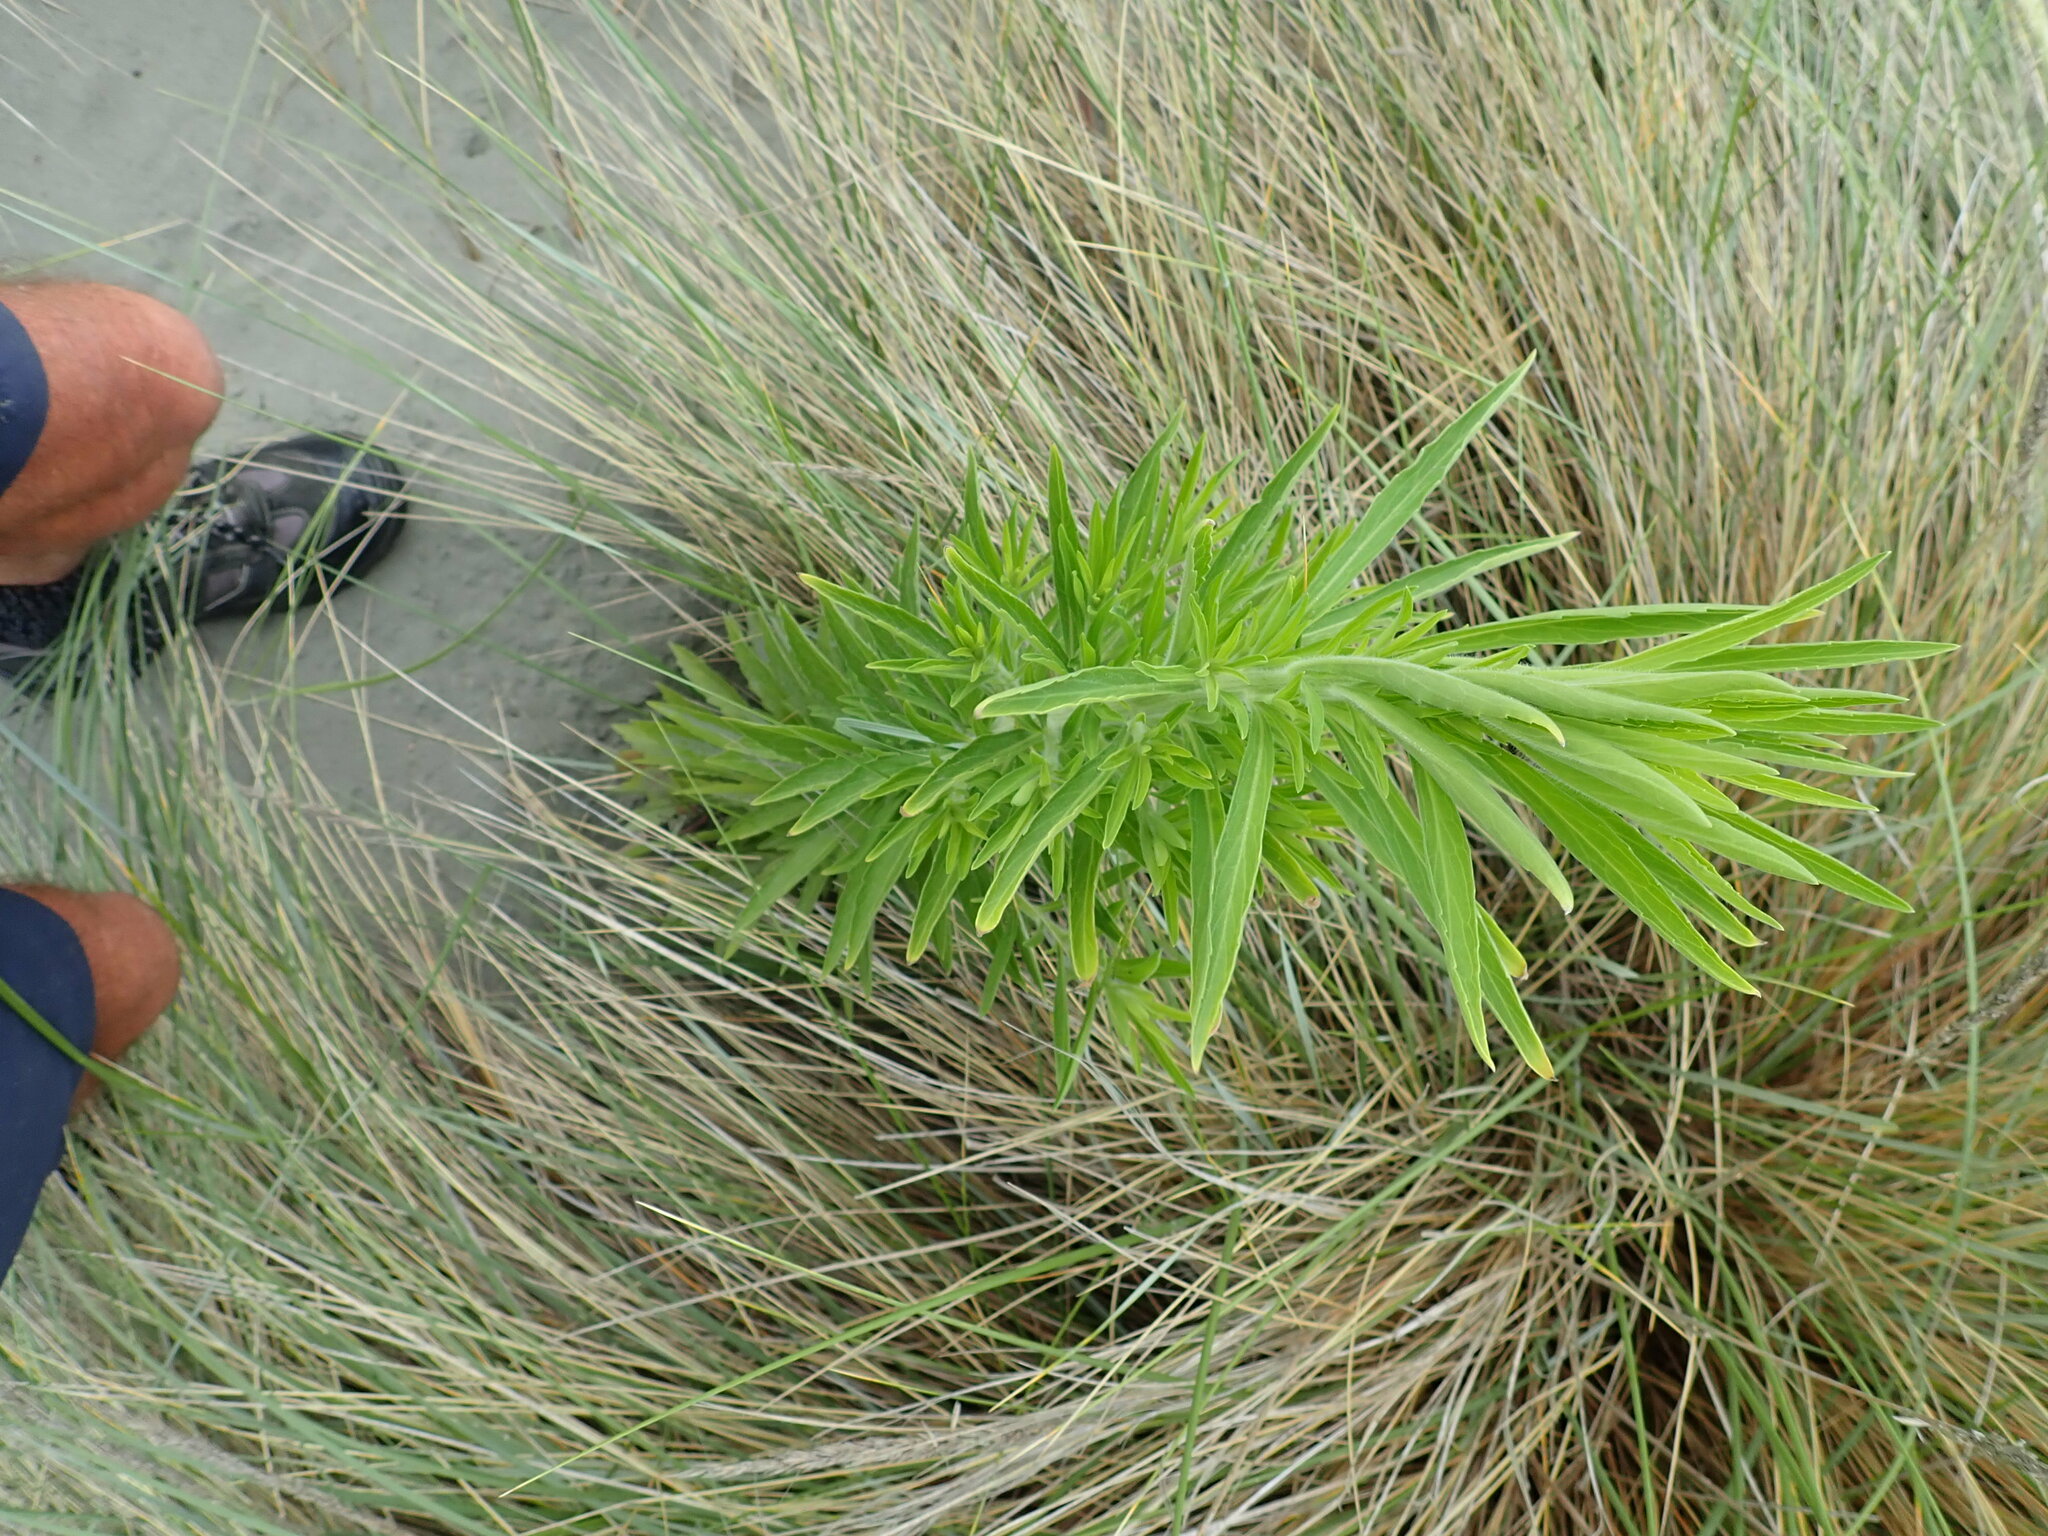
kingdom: Plantae
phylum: Tracheophyta
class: Magnoliopsida
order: Asterales
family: Asteraceae
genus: Erigeron
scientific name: Erigeron sumatrensis
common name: Daisy
